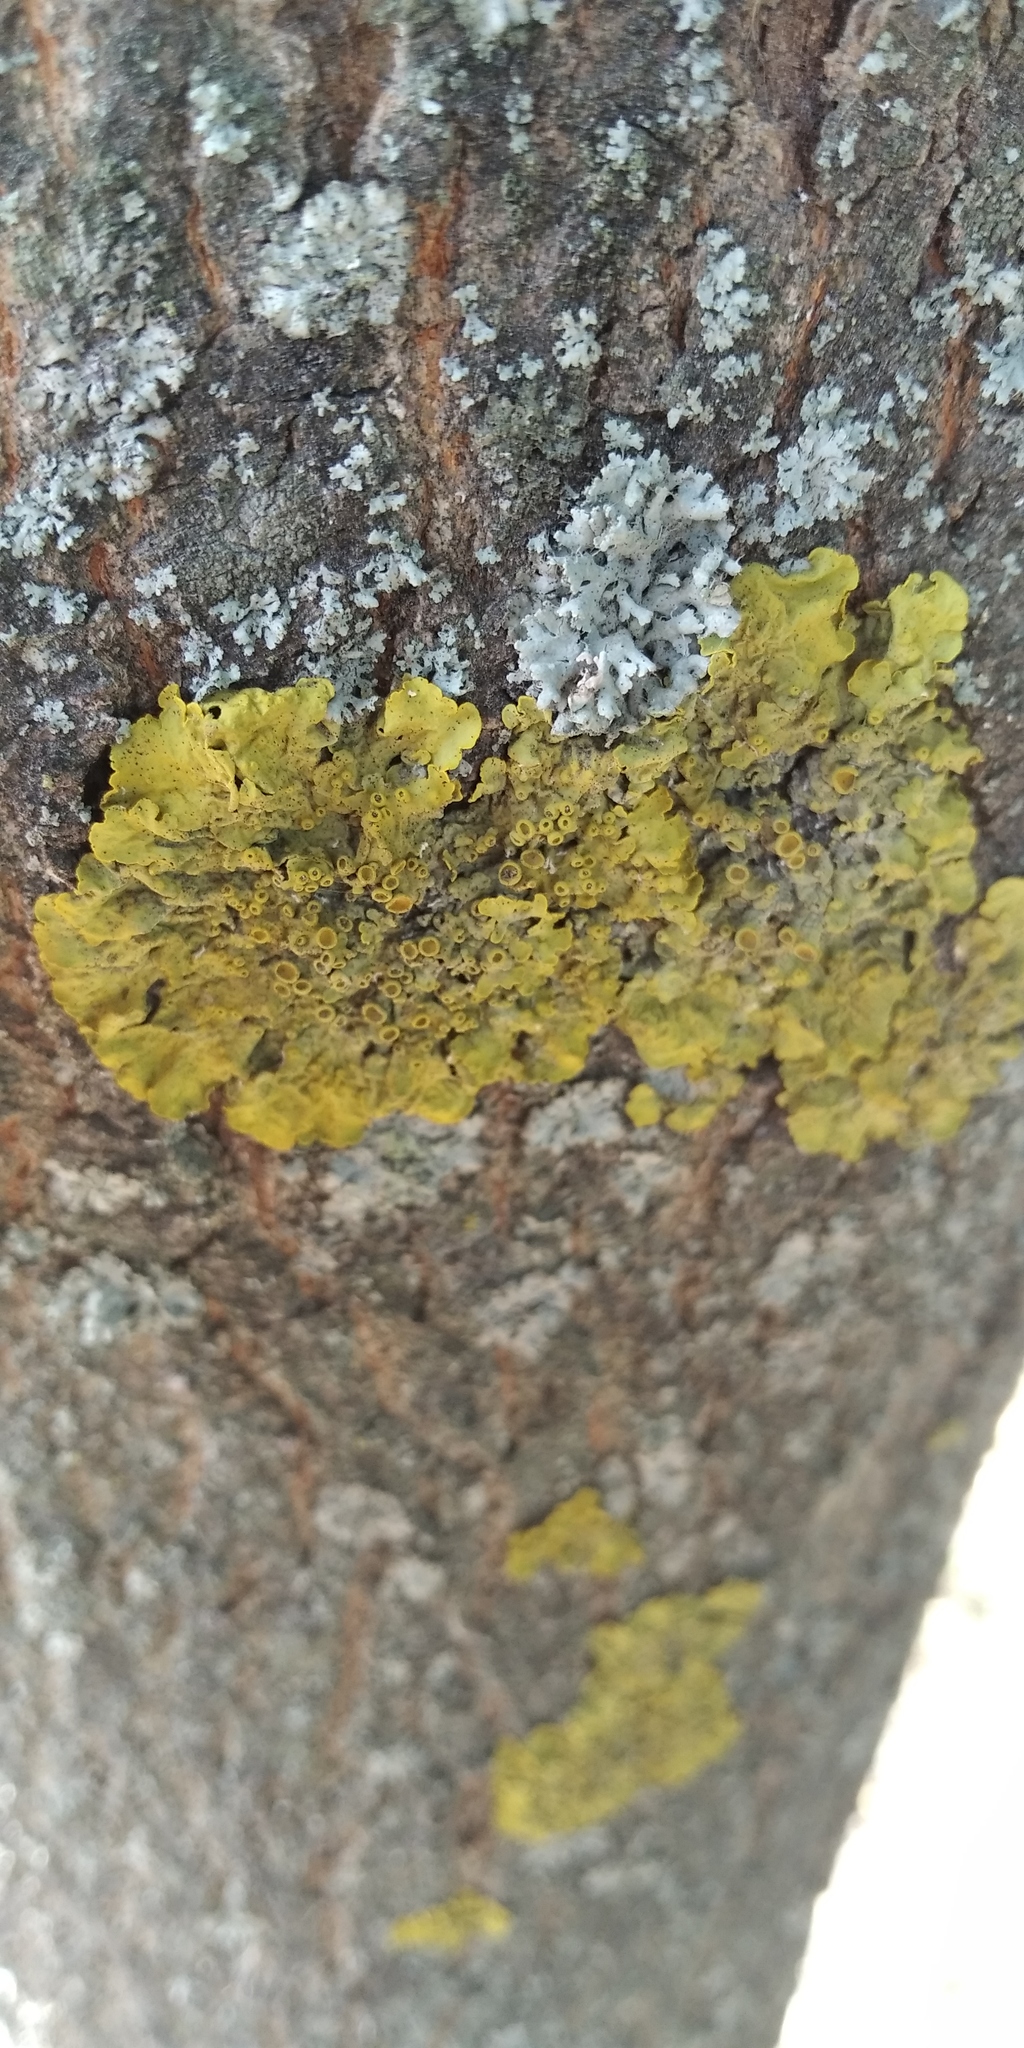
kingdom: Fungi
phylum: Ascomycota
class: Lecanoromycetes
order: Teloschistales
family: Teloschistaceae
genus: Xanthoria
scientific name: Xanthoria parietina
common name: Common orange lichen
